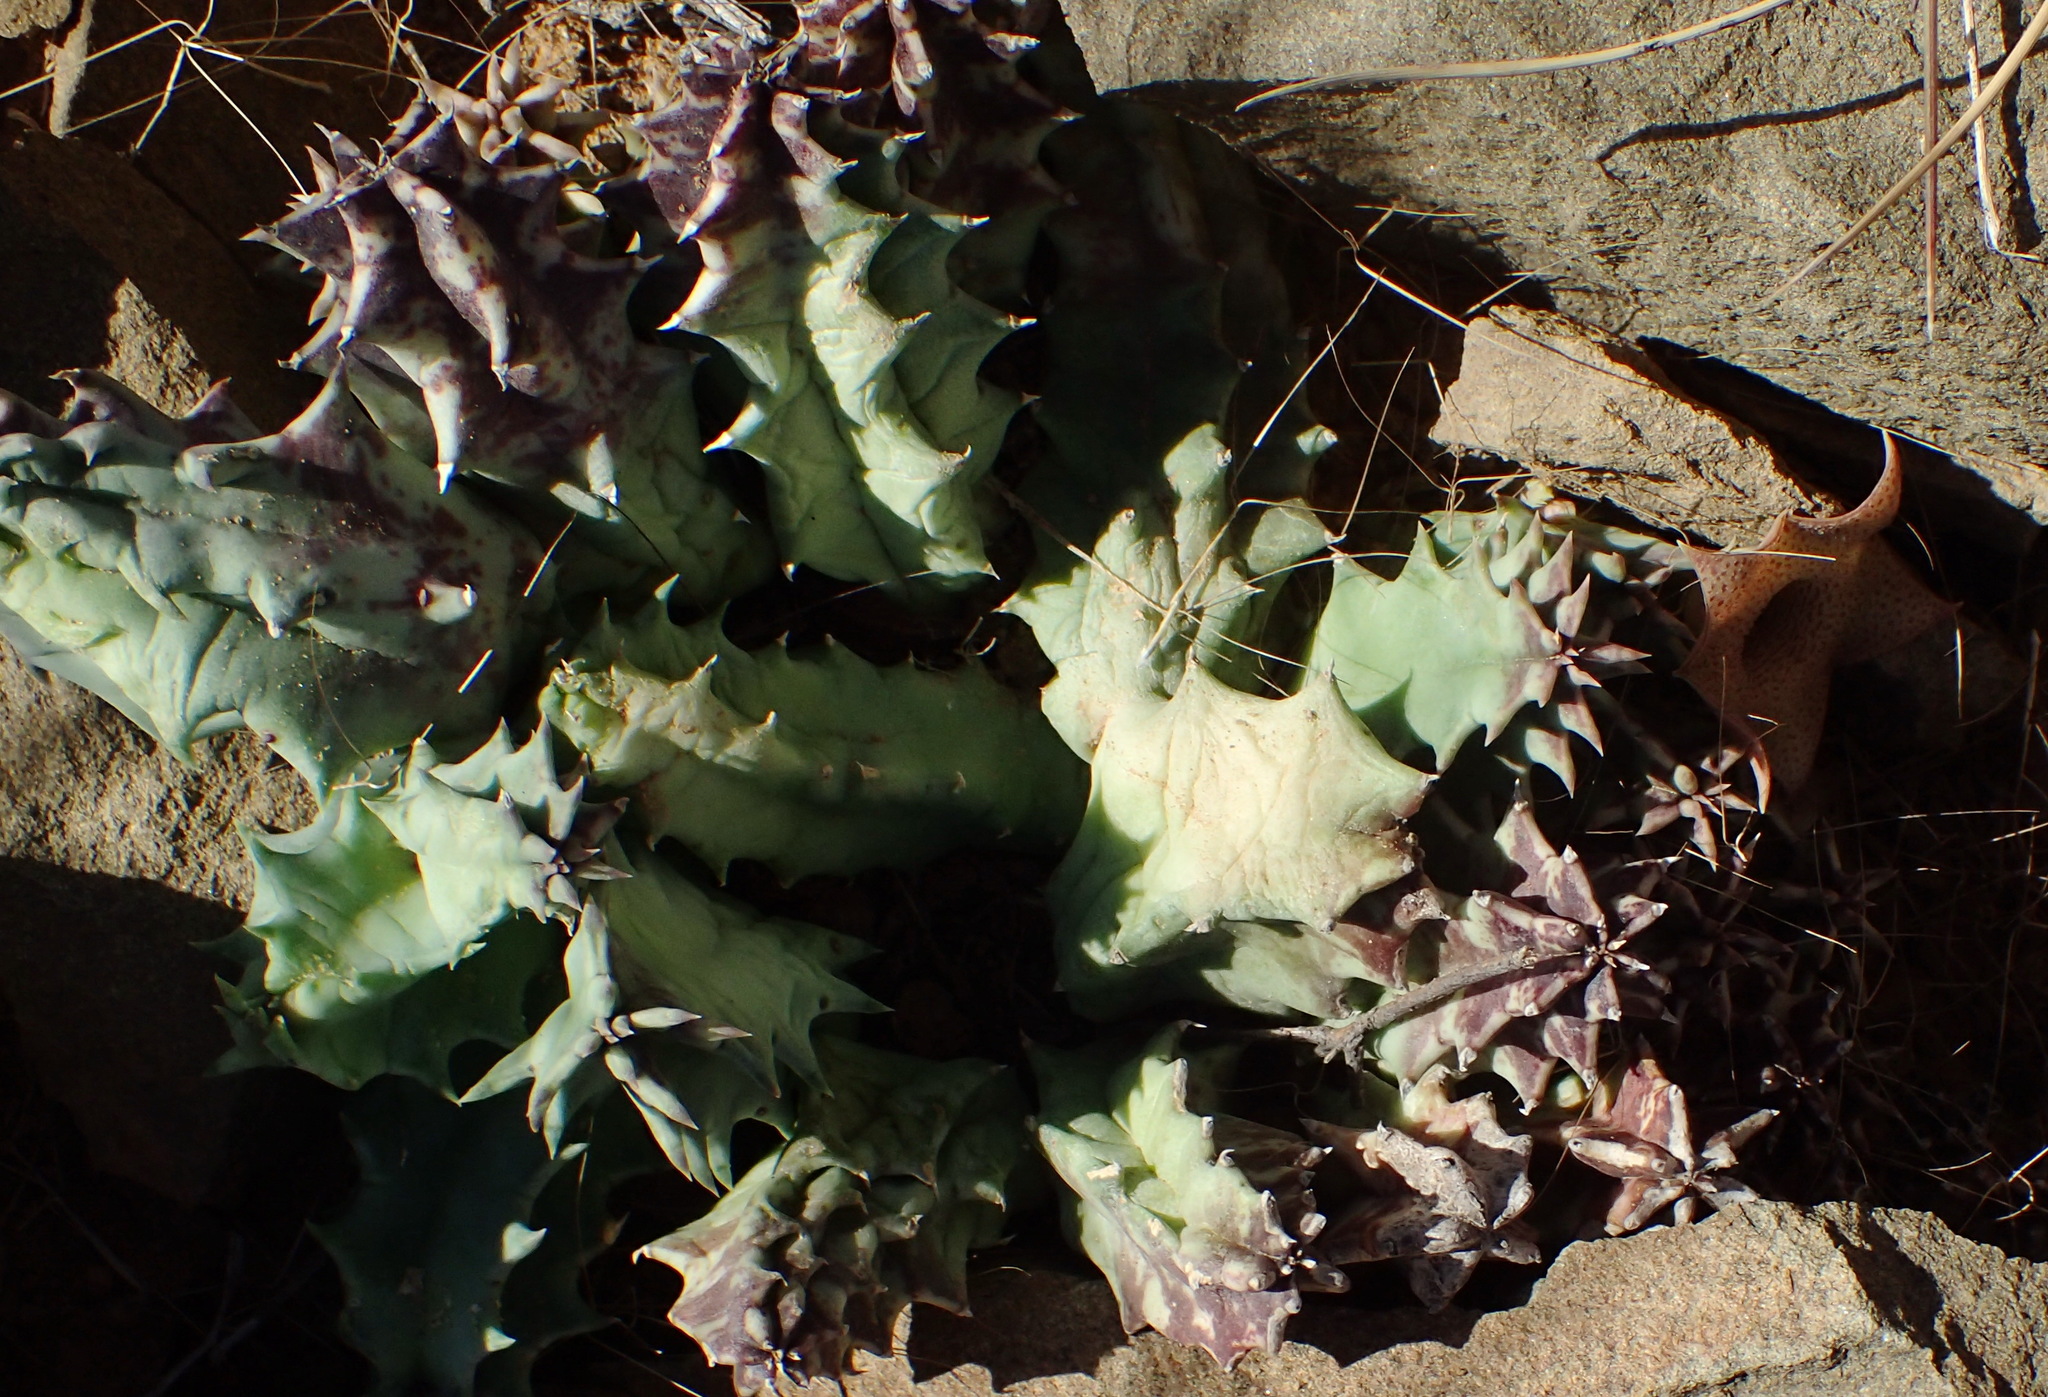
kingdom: Plantae
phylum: Tracheophyta
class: Magnoliopsida
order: Gentianales
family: Apocynaceae
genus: Ceropegia
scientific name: Ceropegia clavigera
